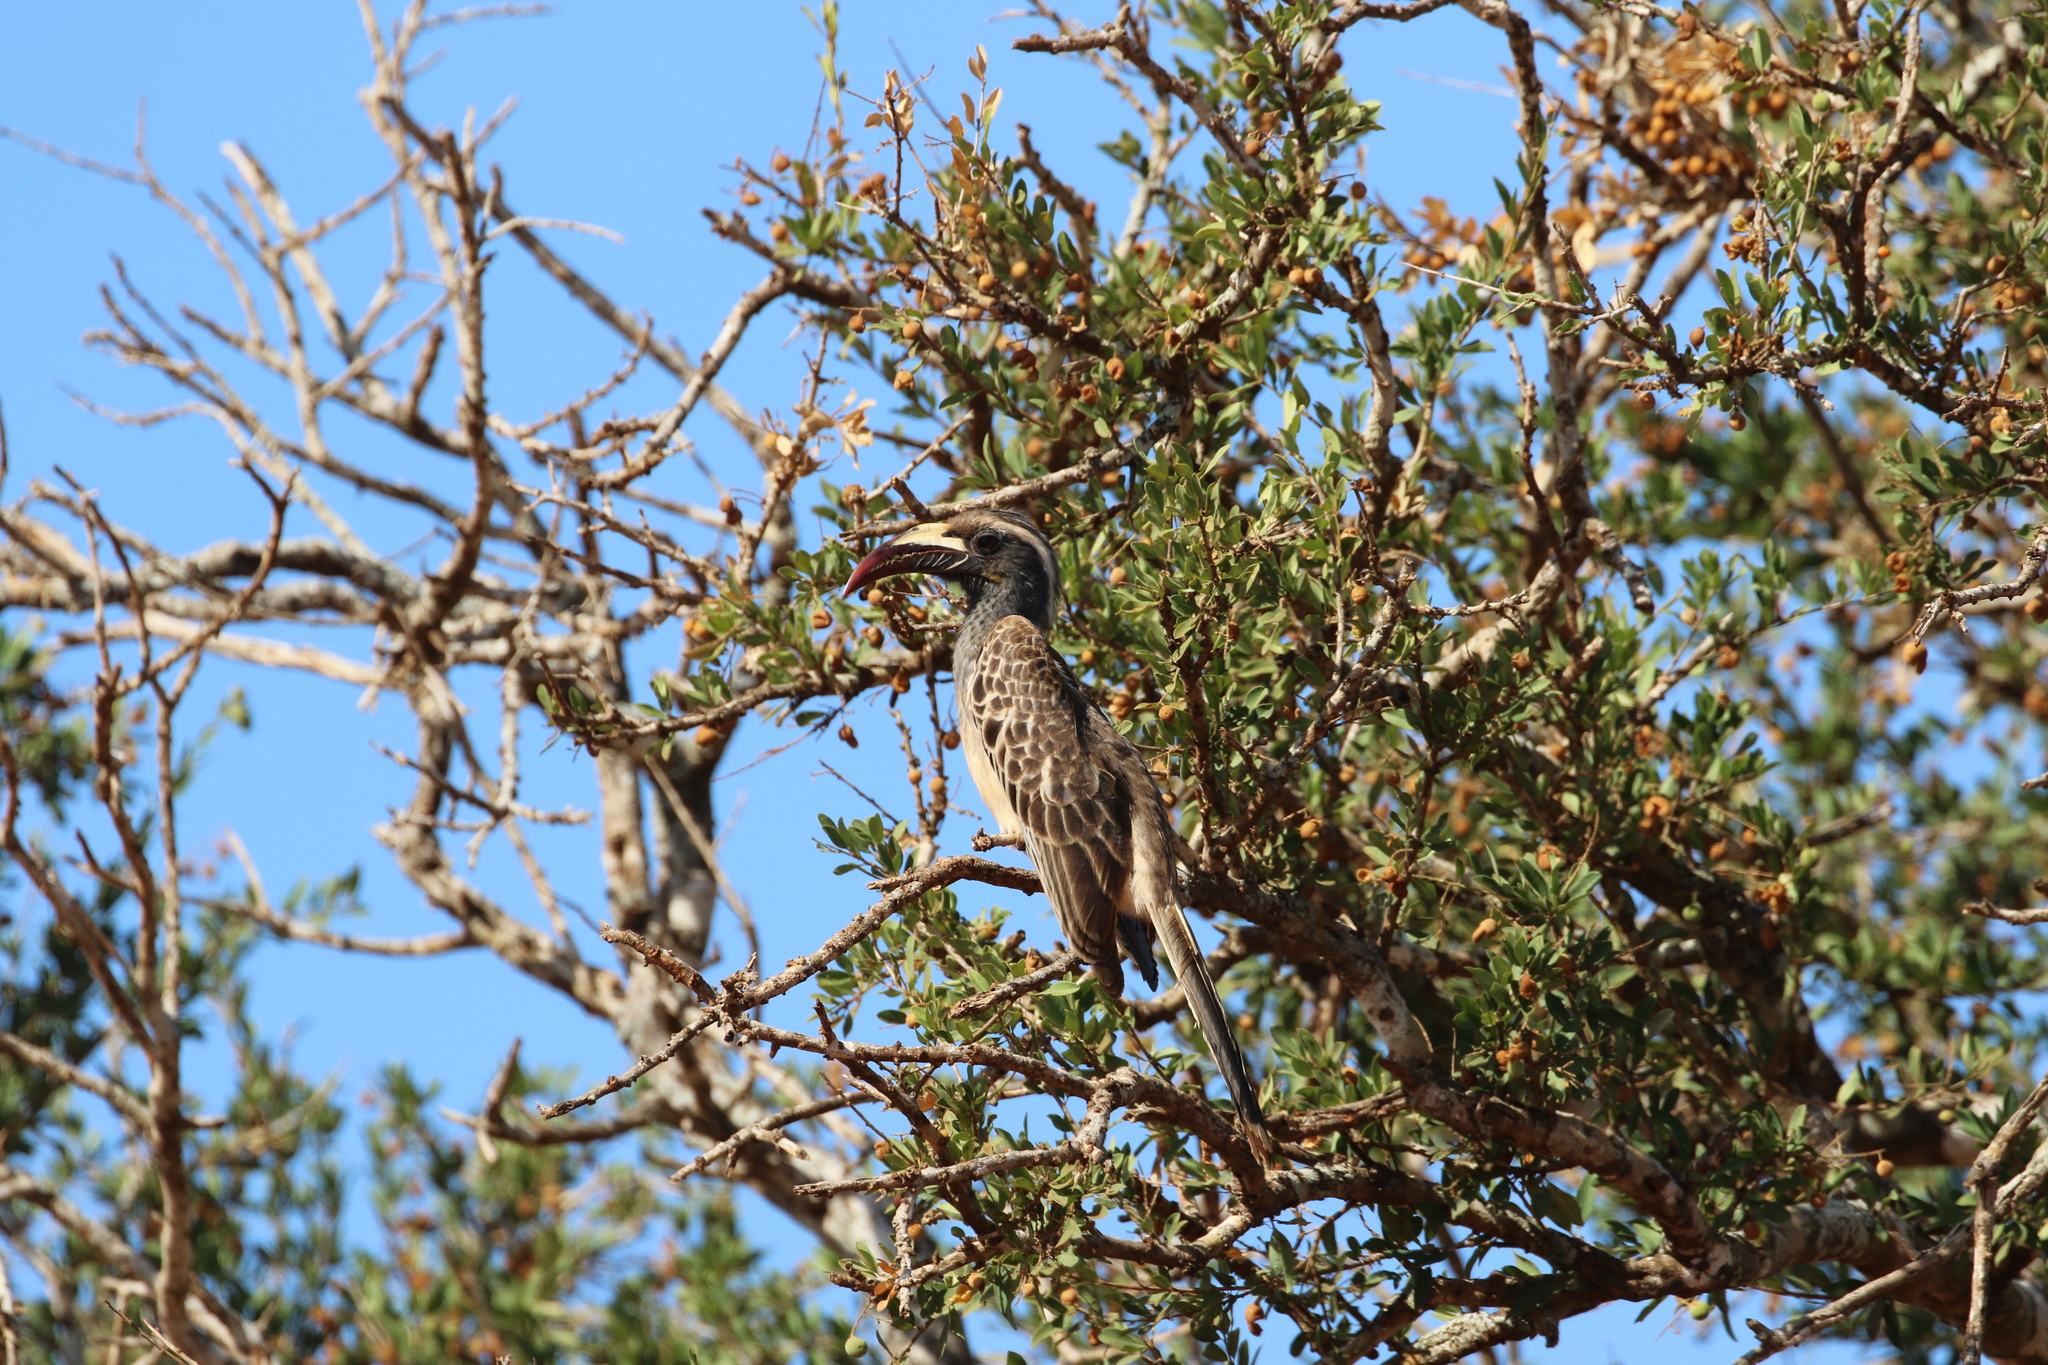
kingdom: Animalia
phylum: Chordata
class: Aves
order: Bucerotiformes
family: Bucerotidae
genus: Lophoceros
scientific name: Lophoceros nasutus
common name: African grey hornbill
